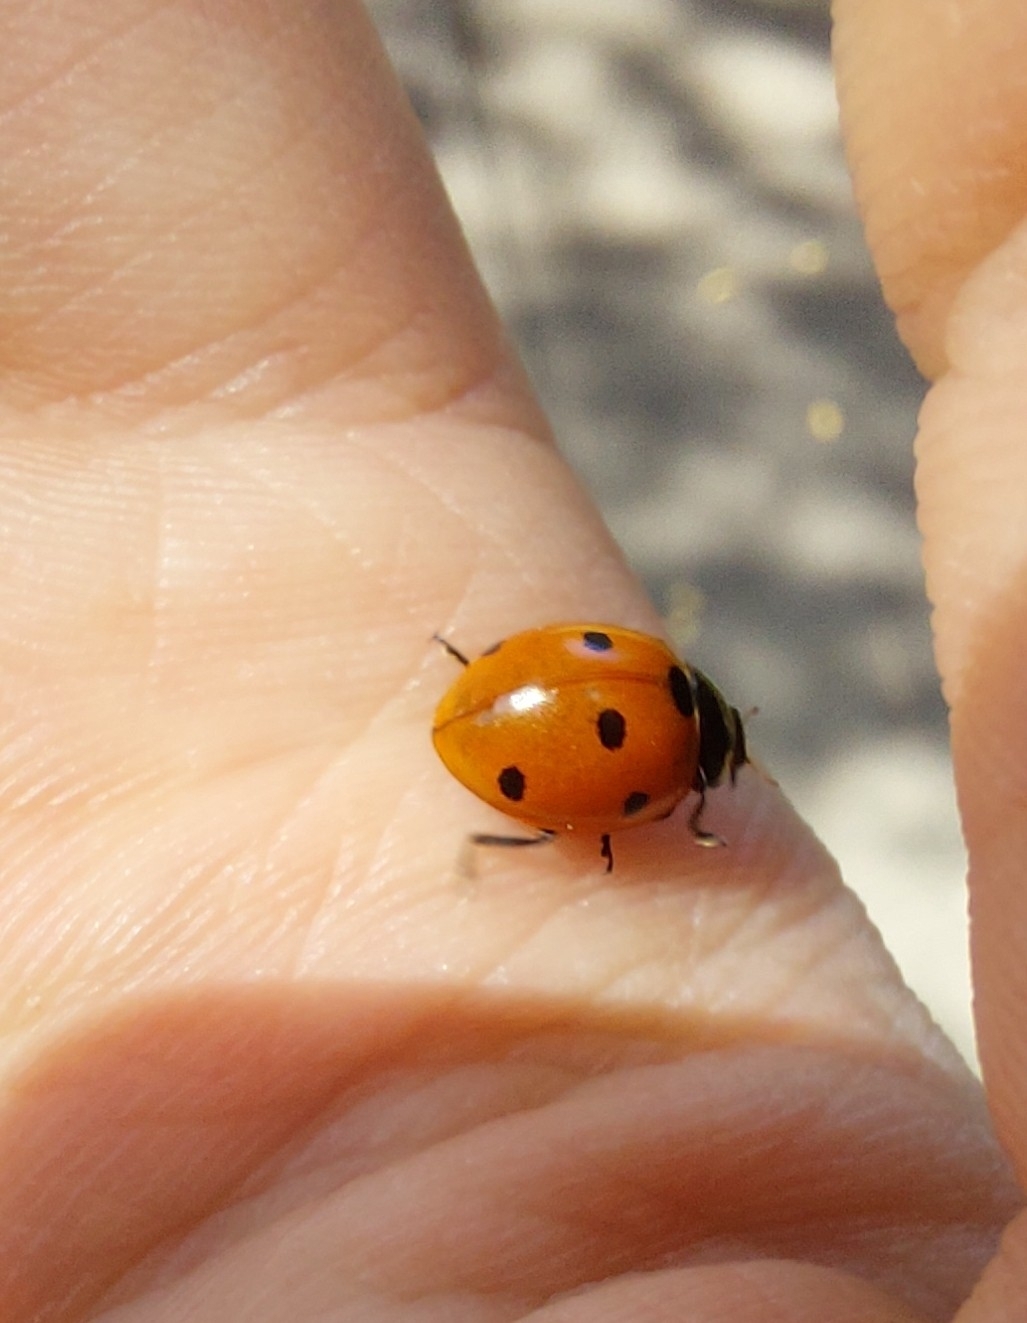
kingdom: Animalia
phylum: Arthropoda
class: Insecta
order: Coleoptera
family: Coccinellidae
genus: Coccinella
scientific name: Coccinella septempunctata
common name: Sevenspotted lady beetle
